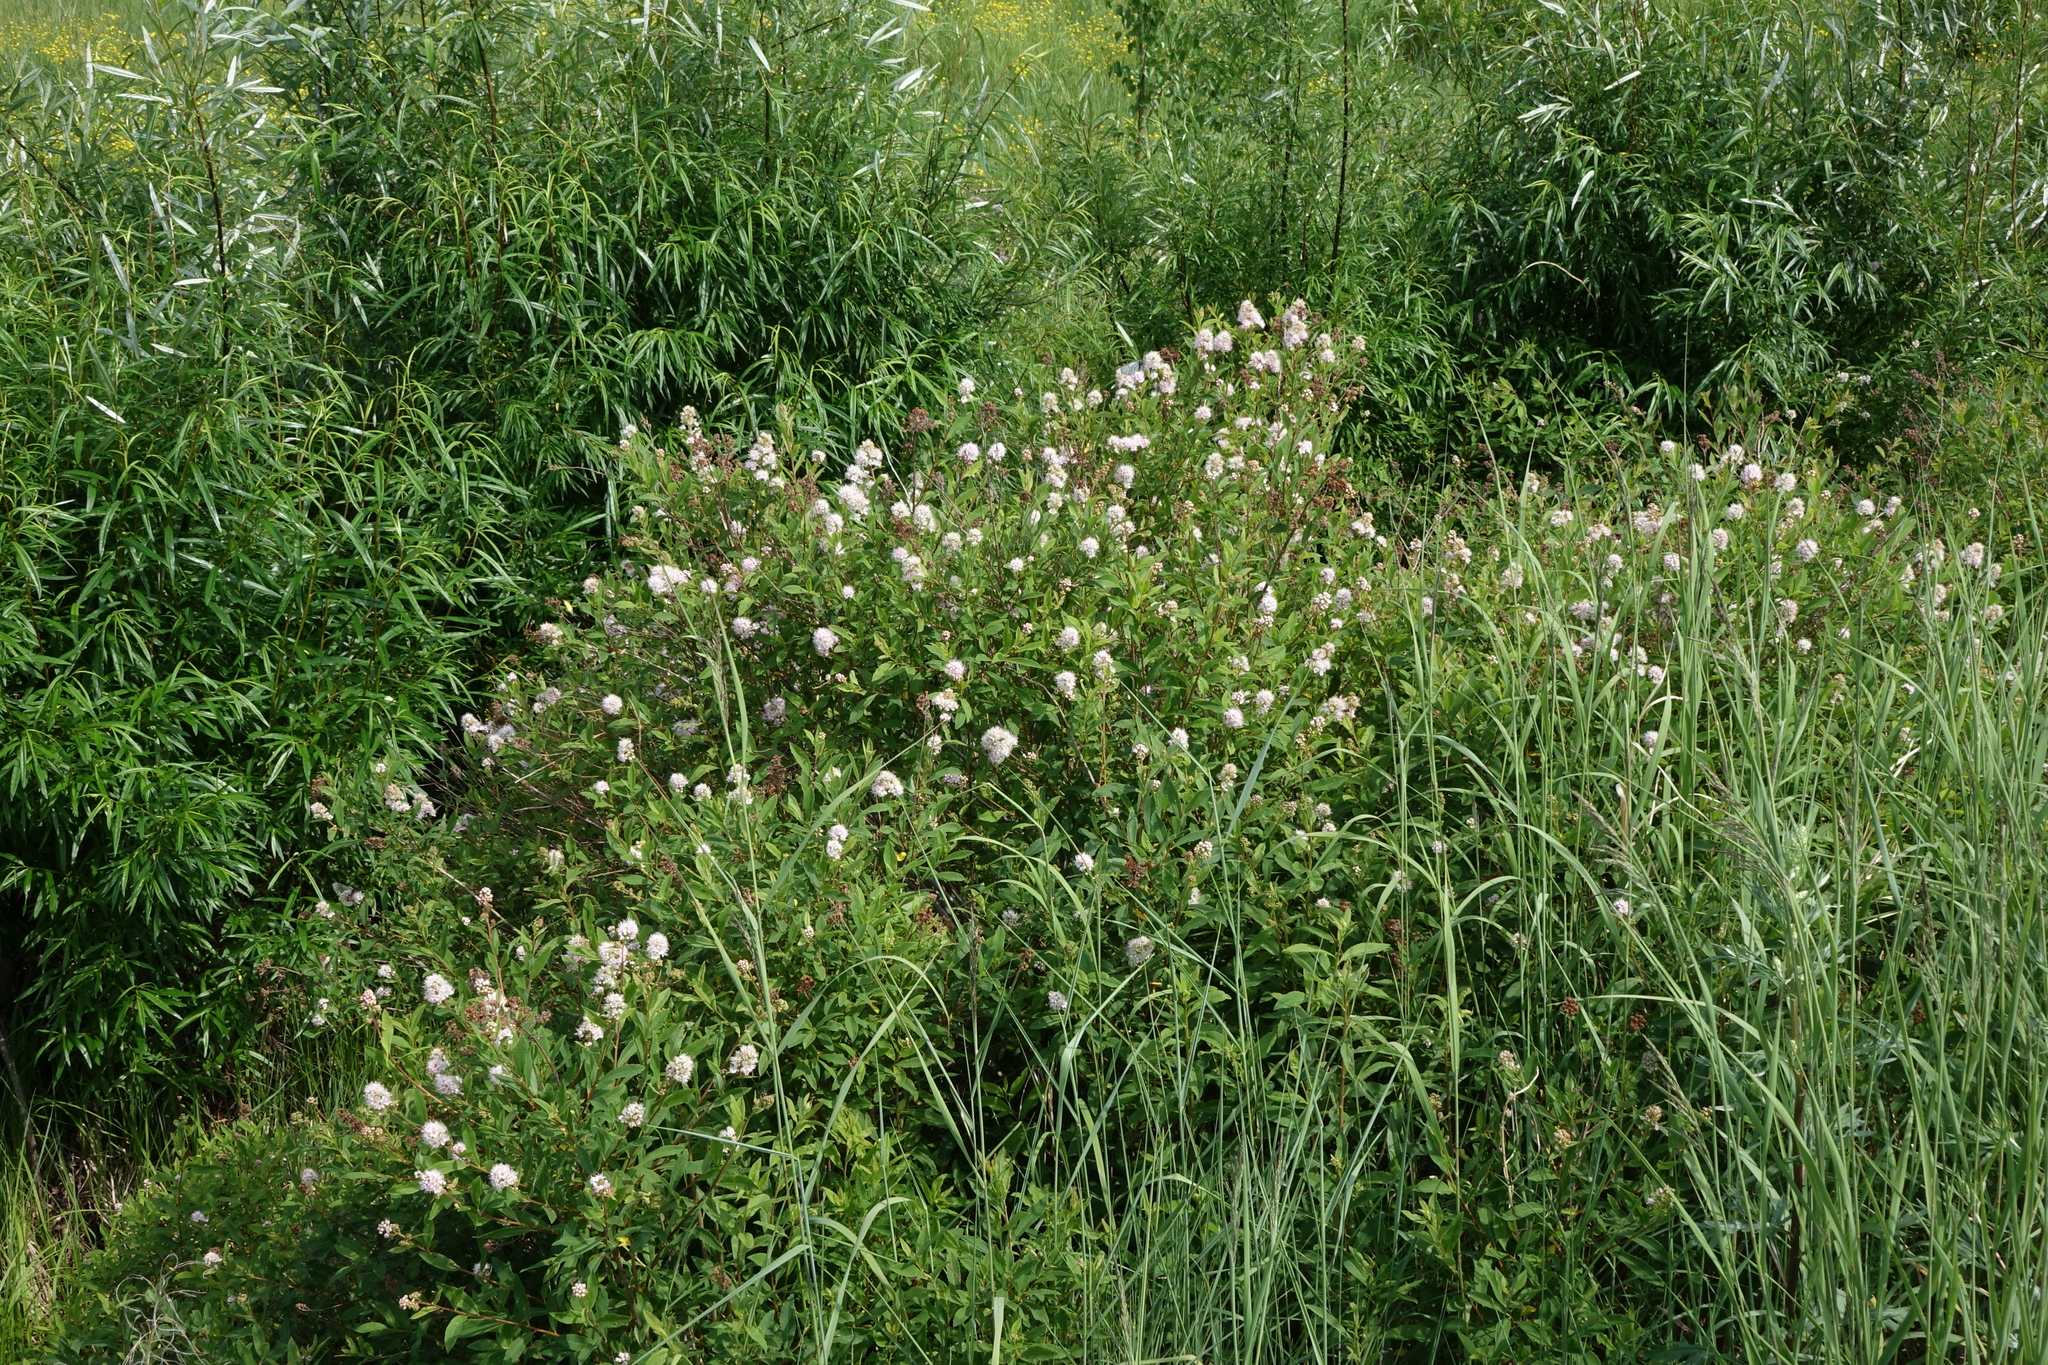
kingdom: Plantae
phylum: Tracheophyta
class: Magnoliopsida
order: Rosales
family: Rosaceae
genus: Spiraea
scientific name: Spiraea salicifolia
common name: Bridewort
